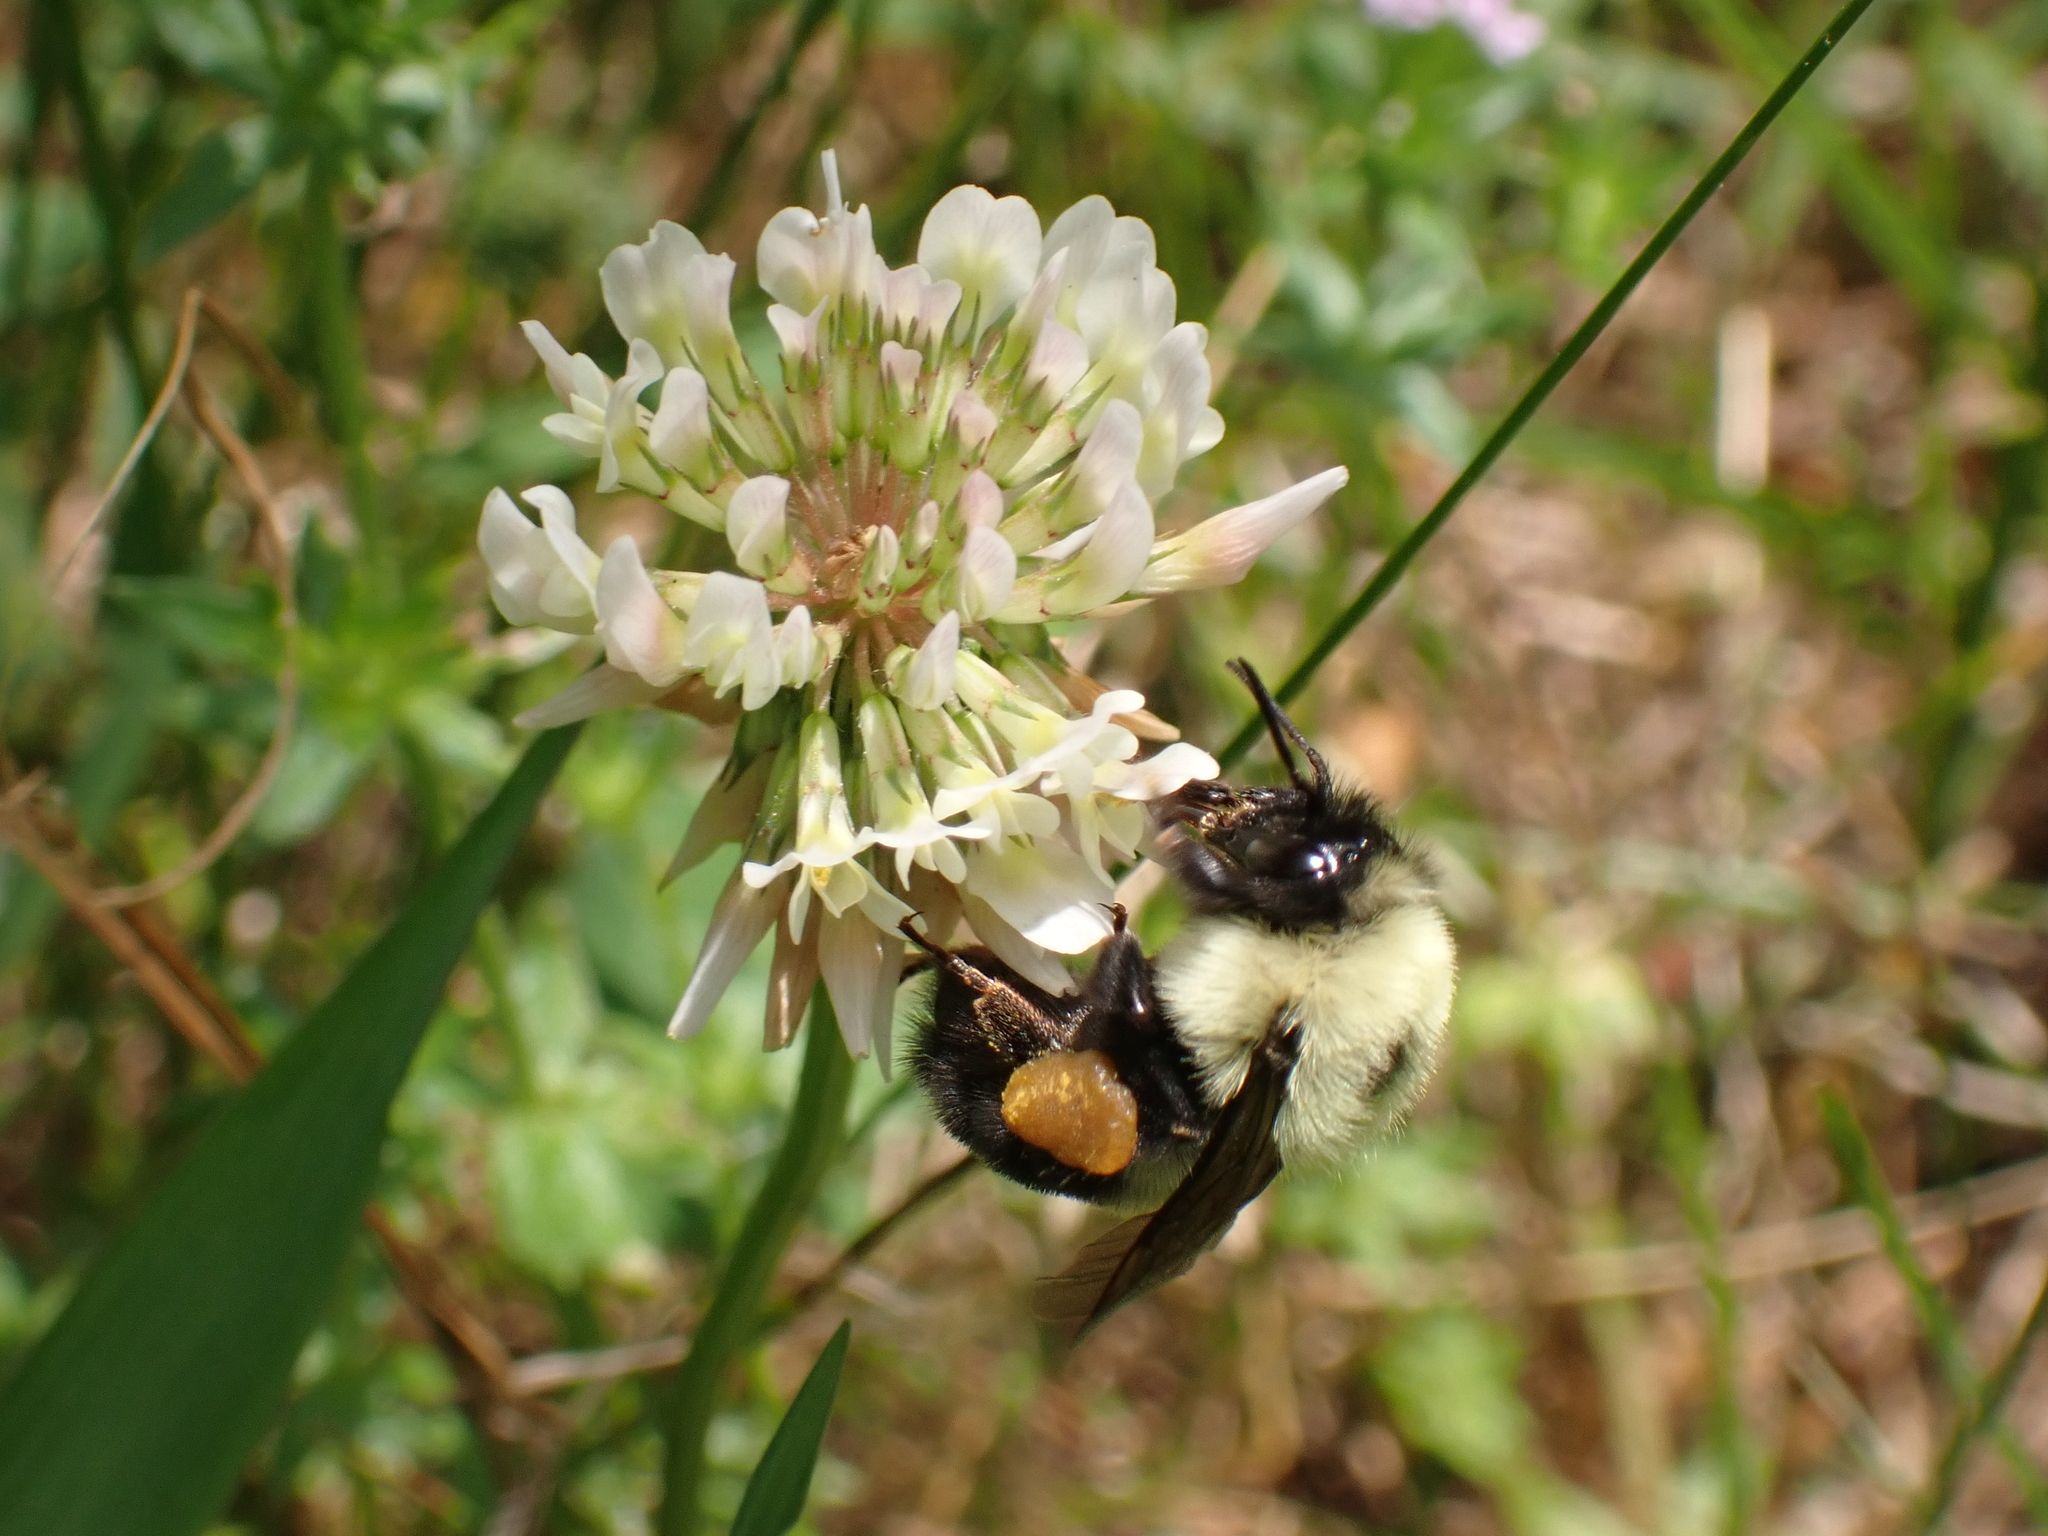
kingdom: Animalia
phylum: Arthropoda
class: Insecta
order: Hymenoptera
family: Apidae
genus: Bombus
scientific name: Bombus bimaculatus
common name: Two-spotted bumble bee
